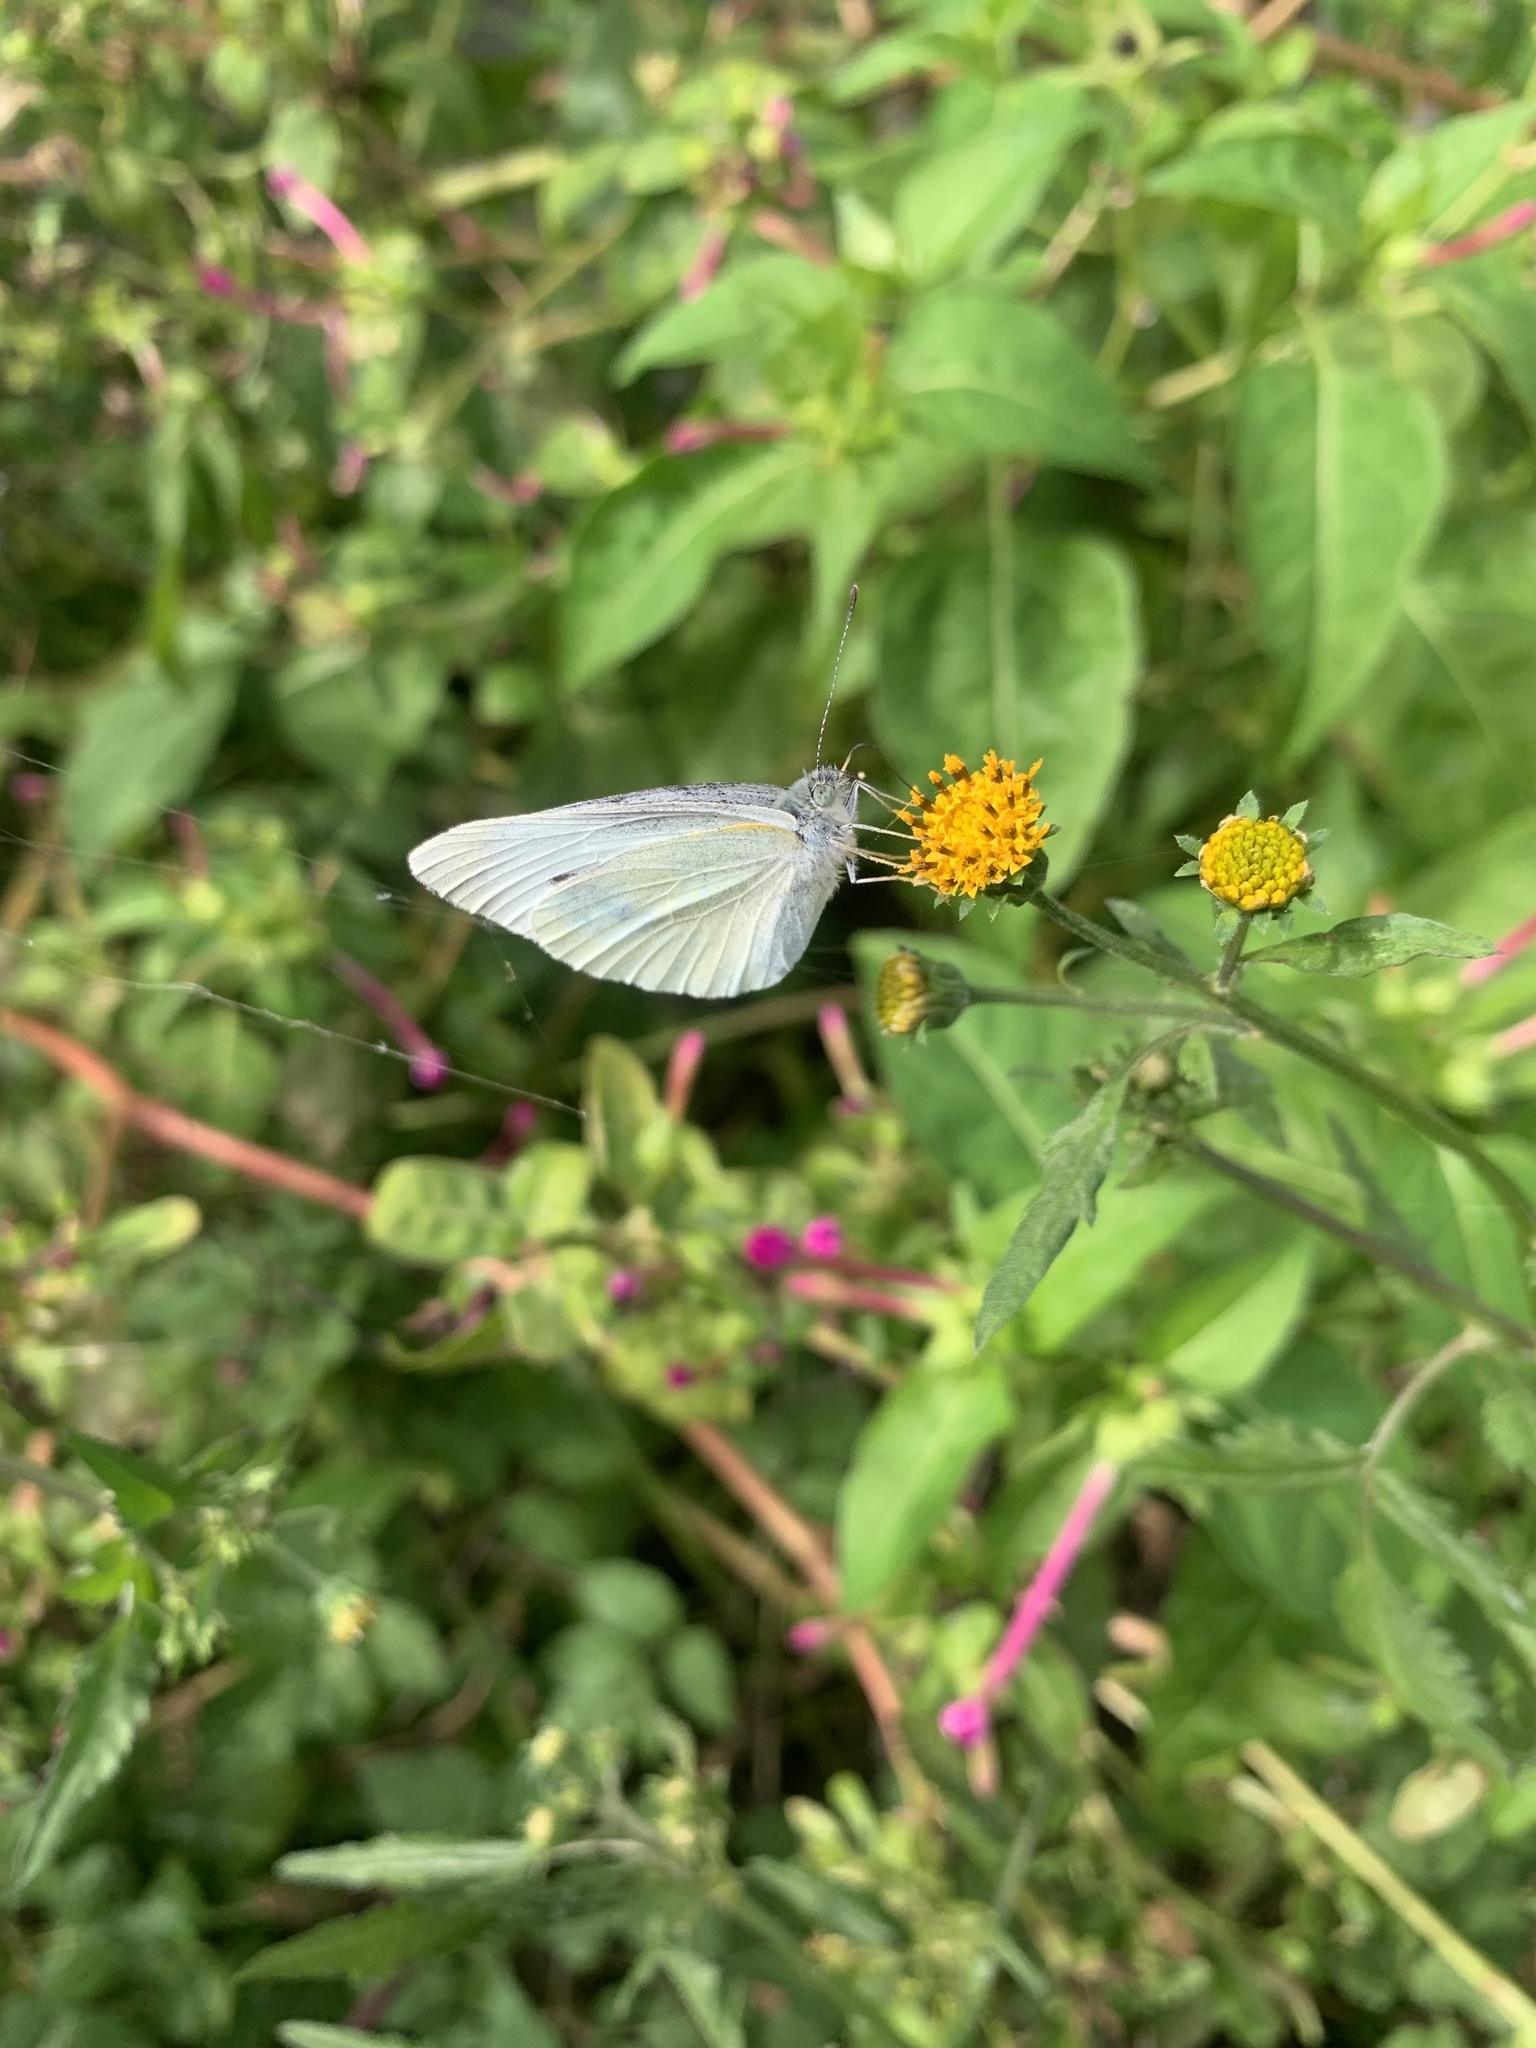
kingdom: Animalia
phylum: Arthropoda
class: Insecta
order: Lepidoptera
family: Pieridae
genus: Pieris
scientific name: Pieris rapae
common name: Small white
